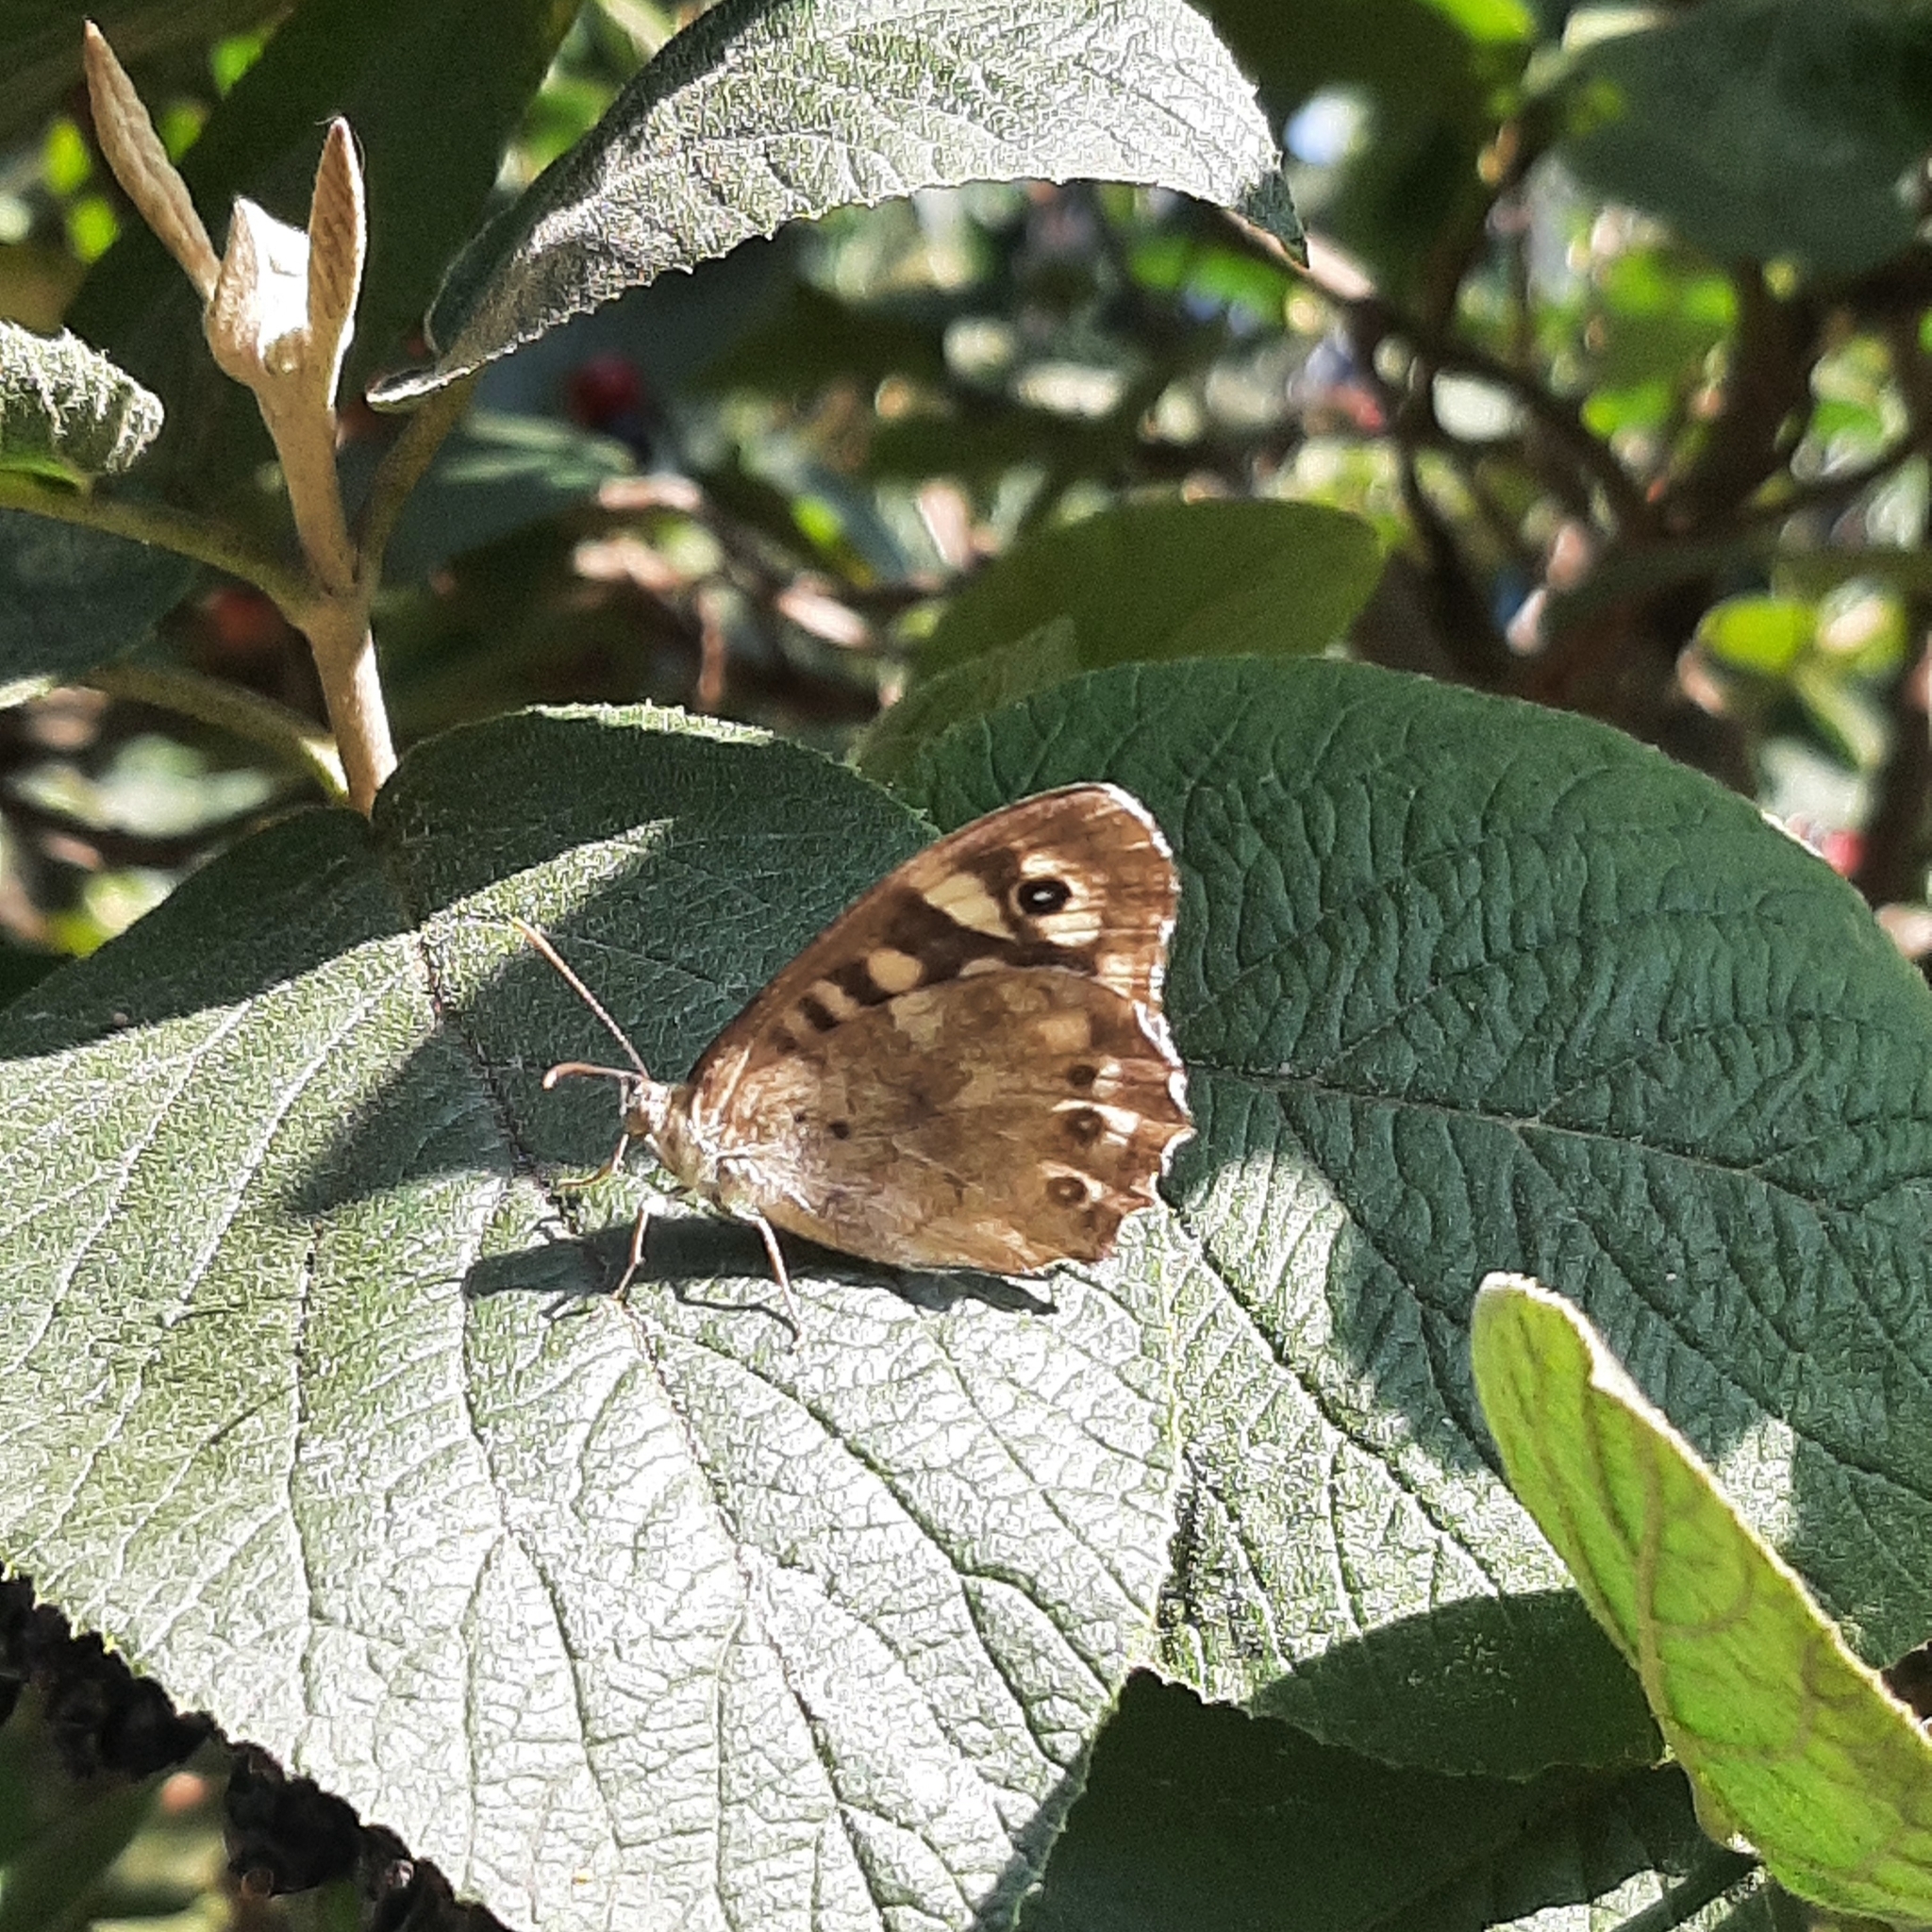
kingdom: Animalia
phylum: Arthropoda
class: Insecta
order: Lepidoptera
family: Nymphalidae
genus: Pararge
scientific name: Pararge aegeria
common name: Speckled wood
